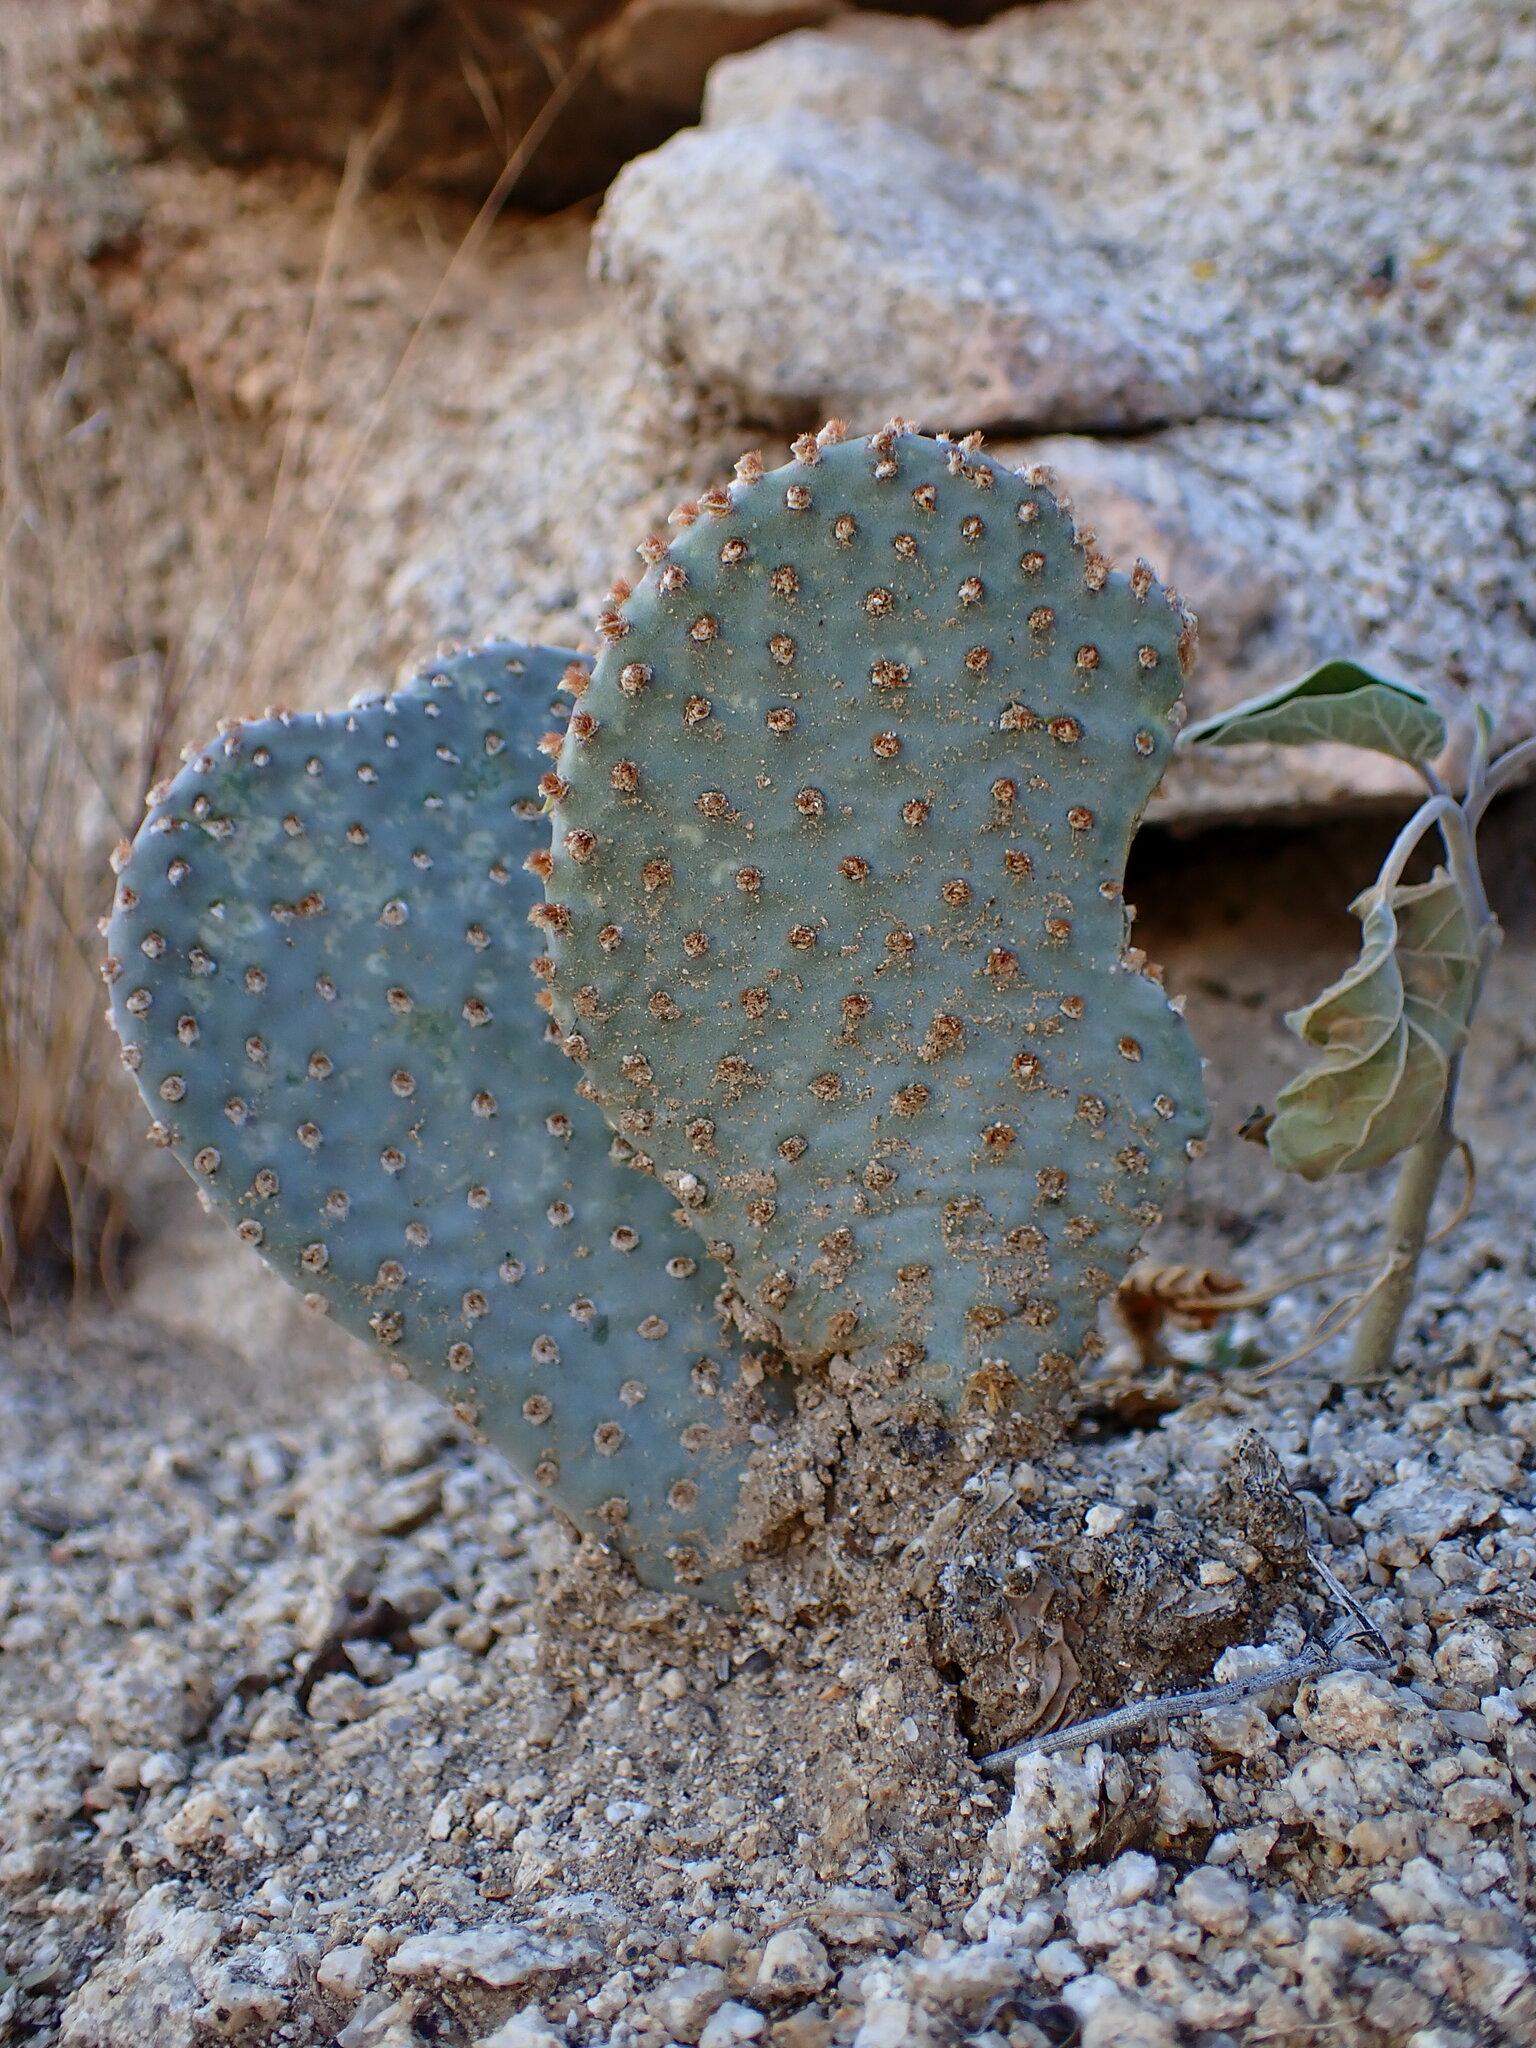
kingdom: Plantae
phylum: Tracheophyta
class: Magnoliopsida
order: Caryophyllales
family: Cactaceae
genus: Opuntia
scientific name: Opuntia basilaris
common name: Beavertail prickly-pear
